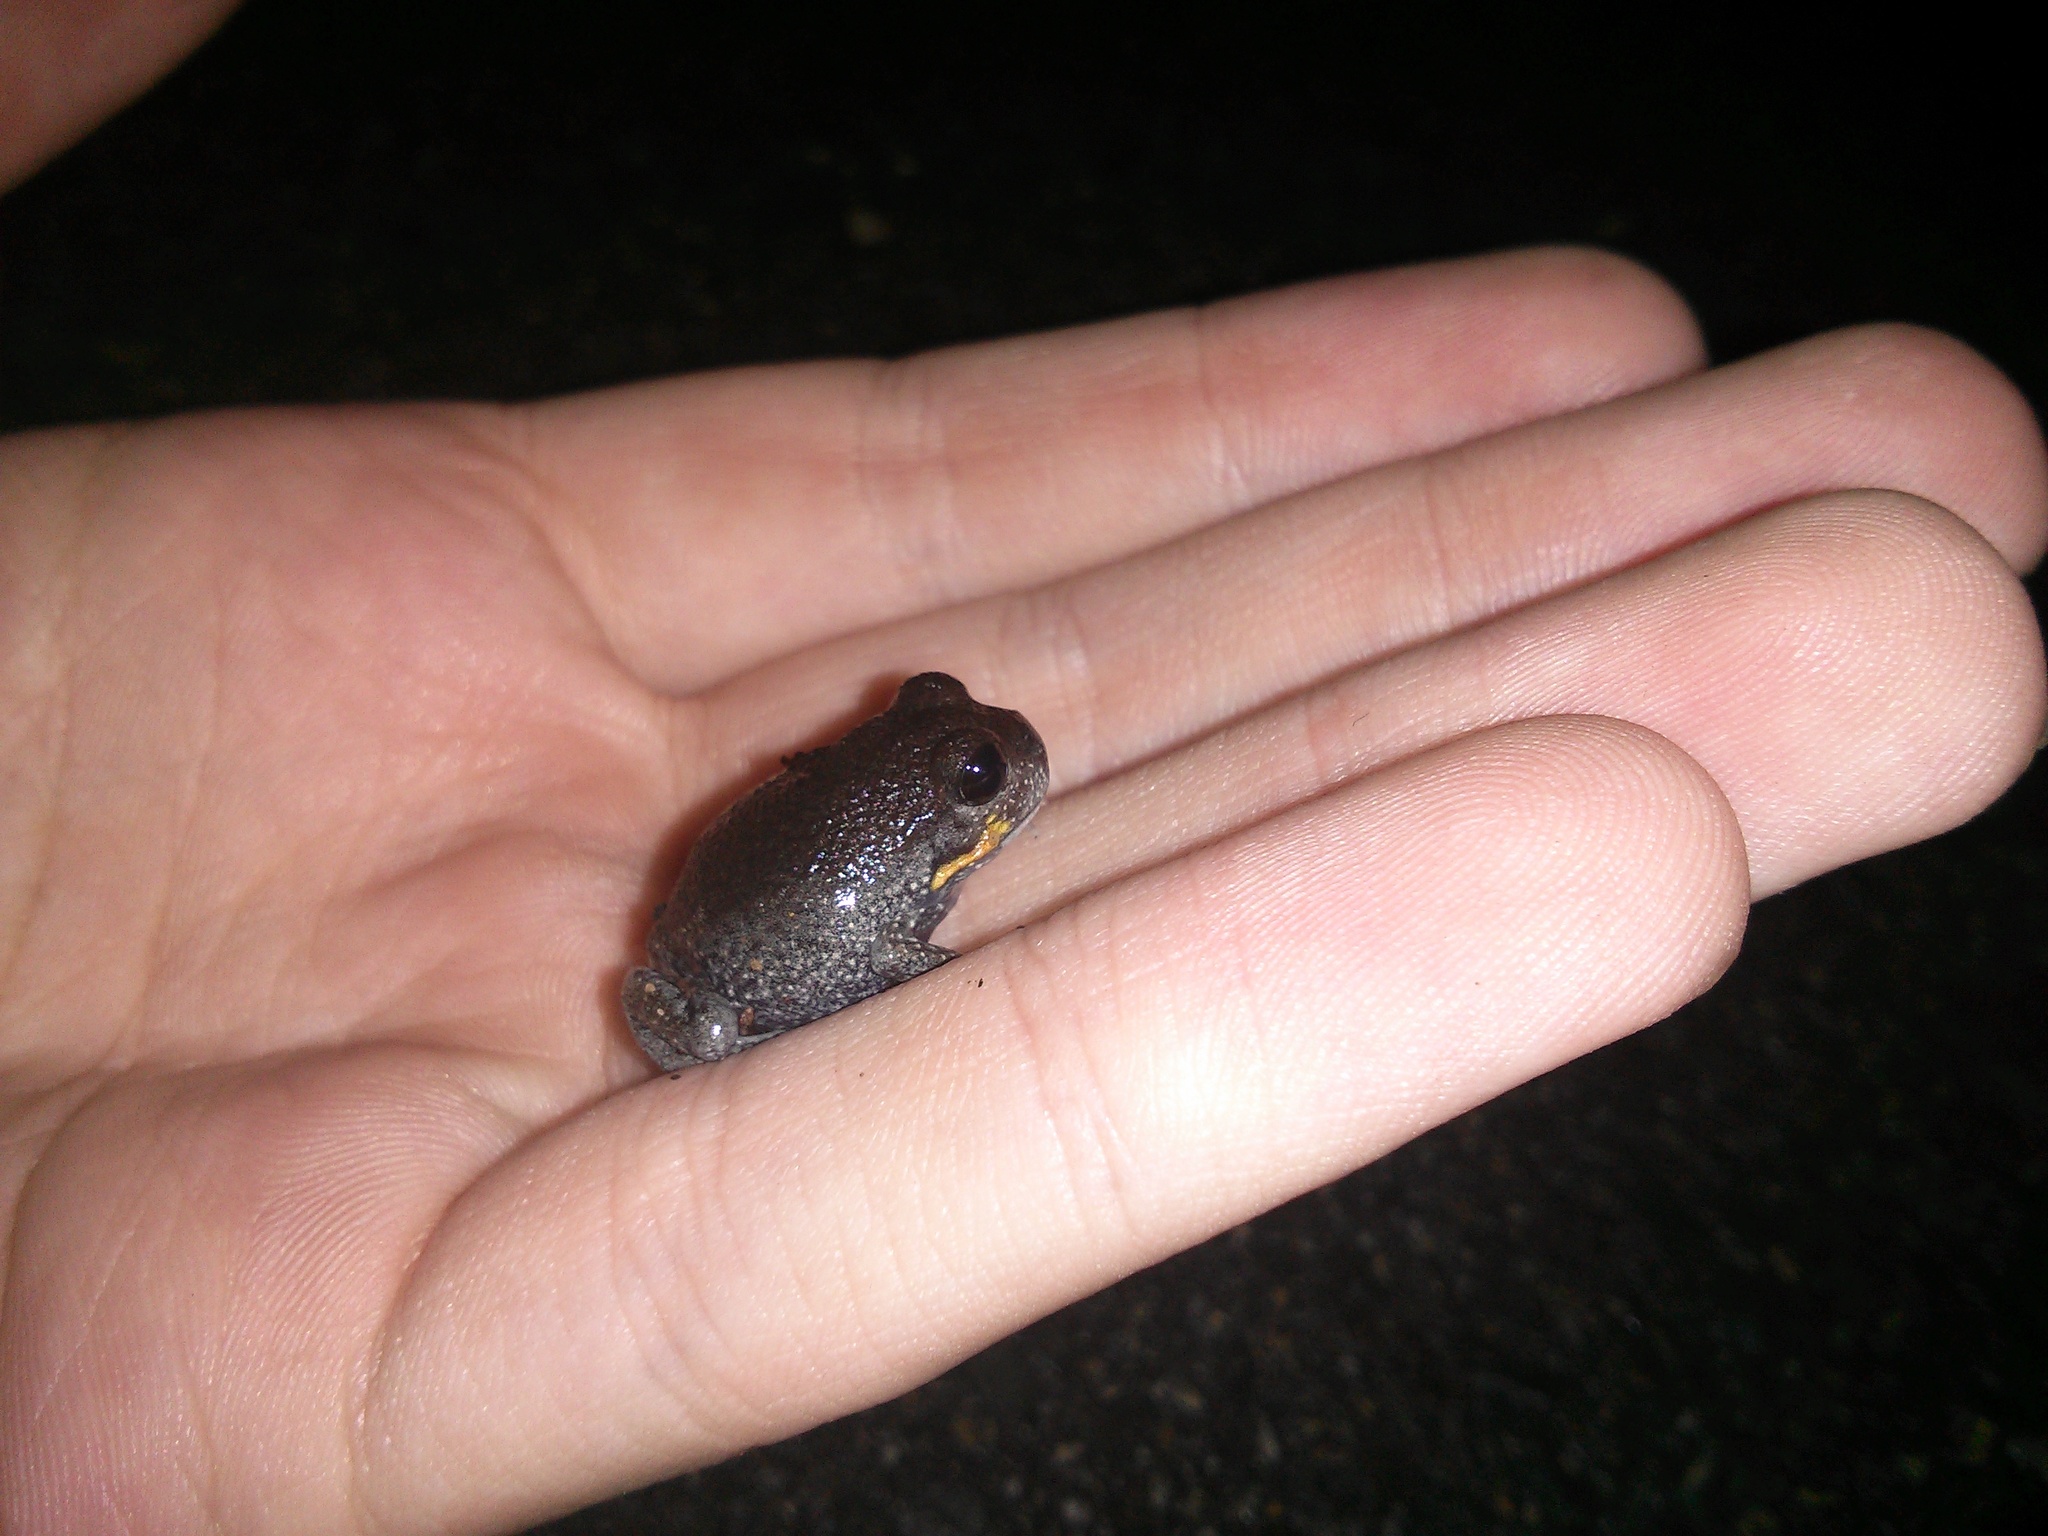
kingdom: Animalia
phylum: Chordata
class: Amphibia
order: Anura
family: Limnodynastidae
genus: Heleioporus
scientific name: Heleioporus australiacus
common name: Eastern owl frog
